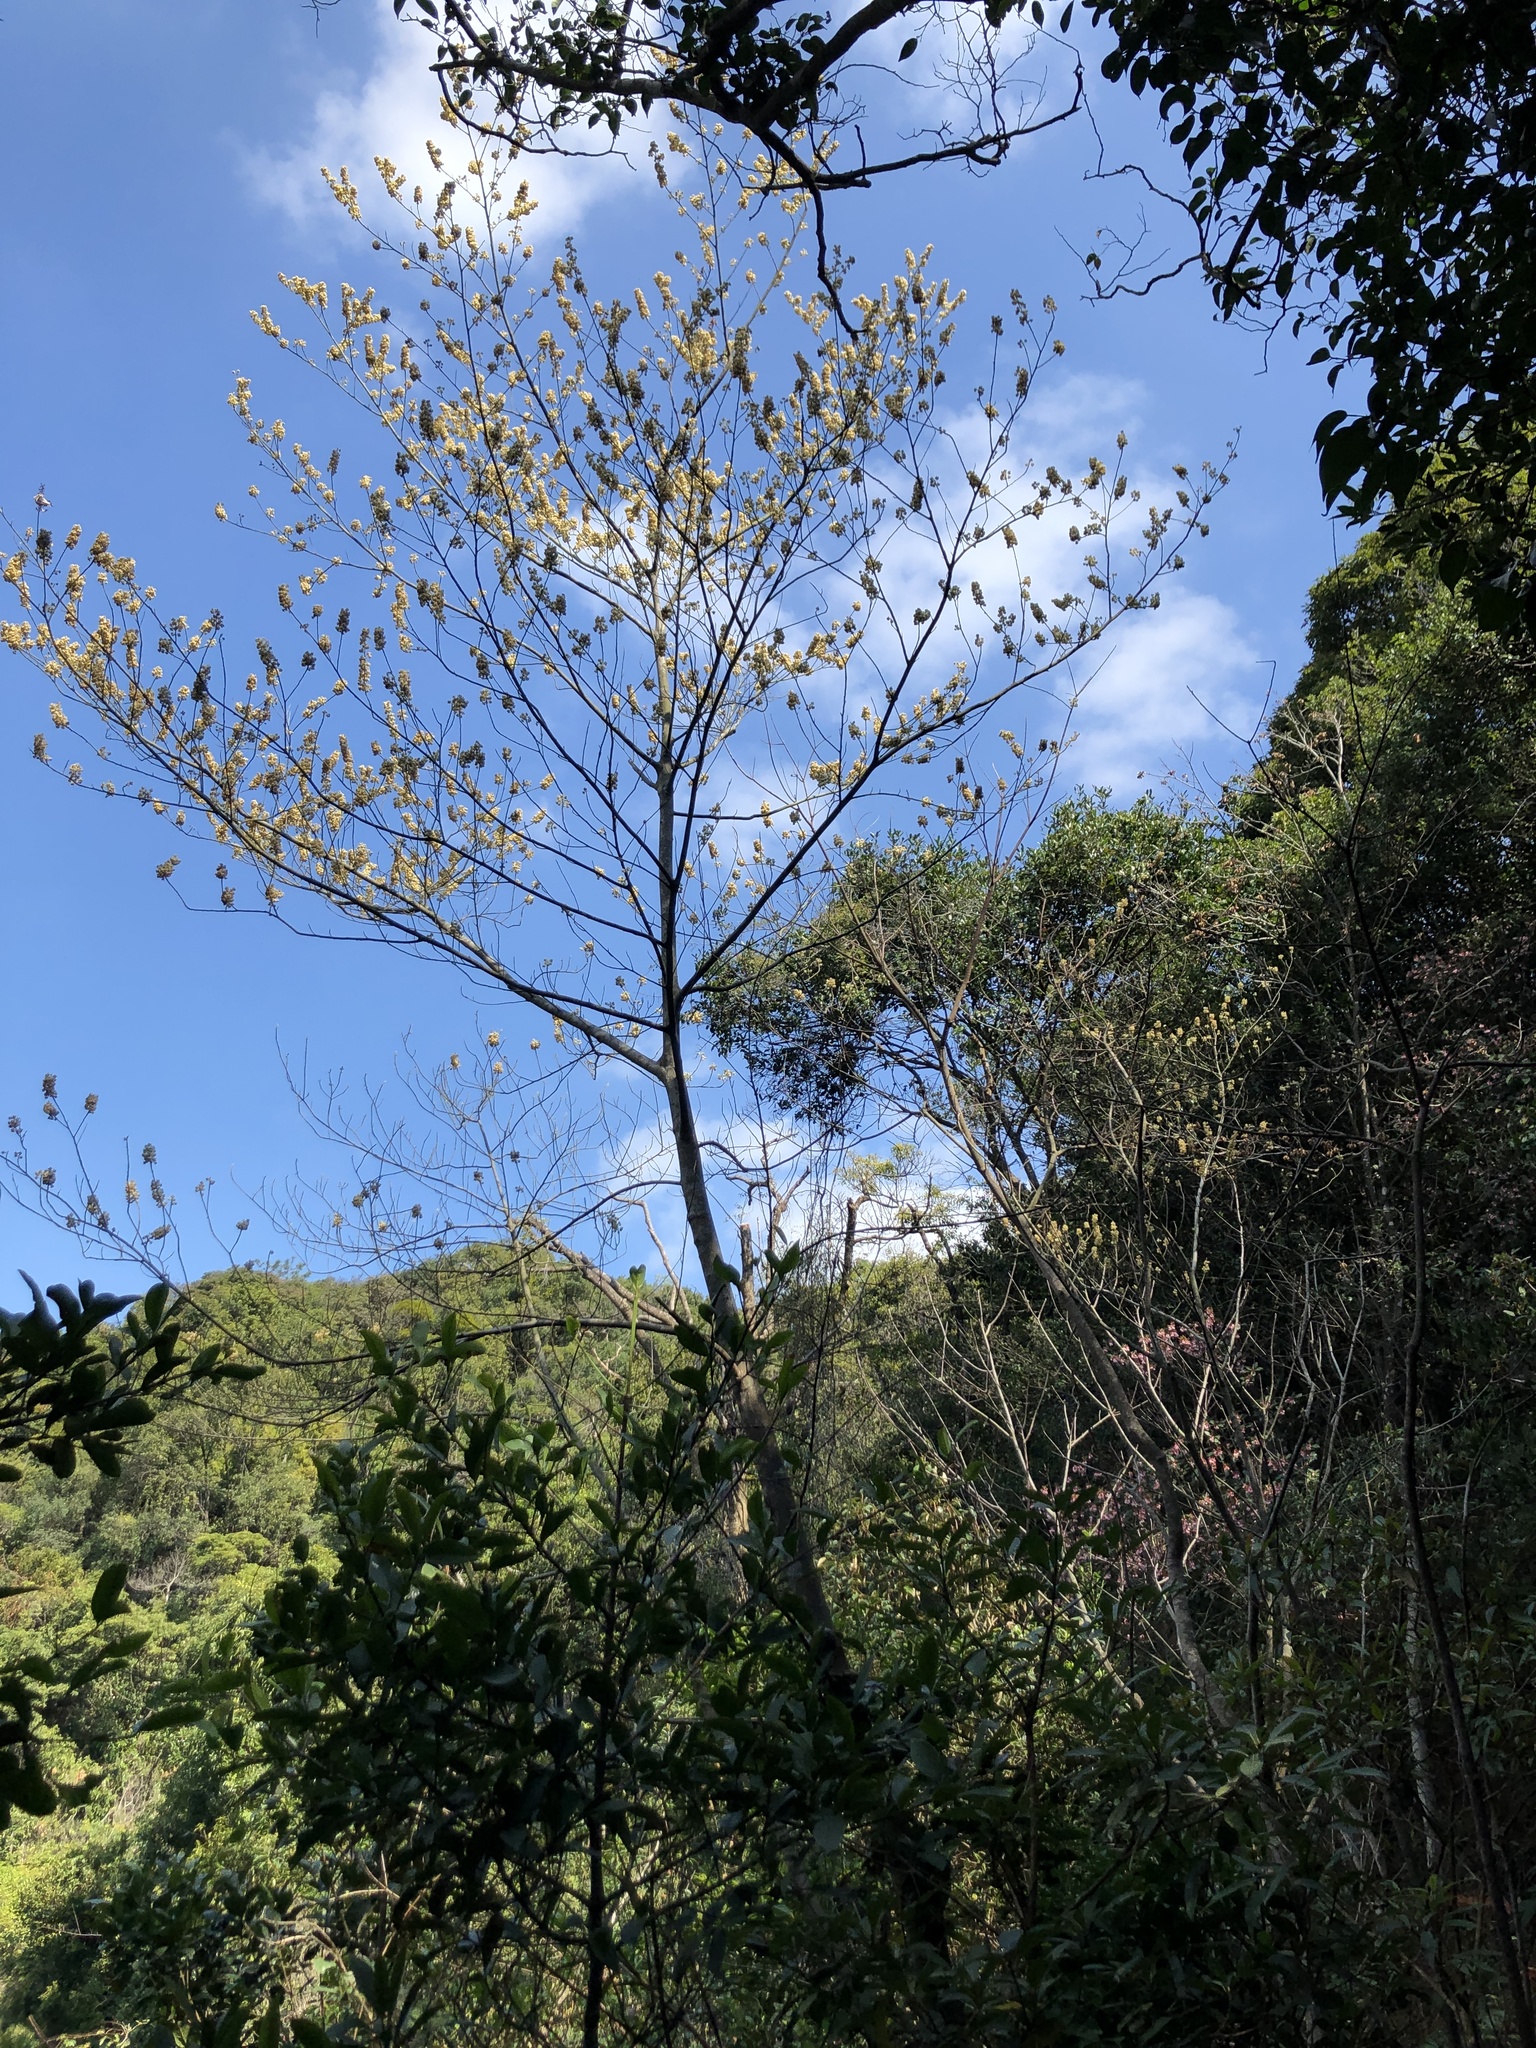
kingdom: Plantae
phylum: Tracheophyta
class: Magnoliopsida
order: Laurales
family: Lauraceae
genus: Litsea
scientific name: Litsea cubeba
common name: Mountain-pepper
